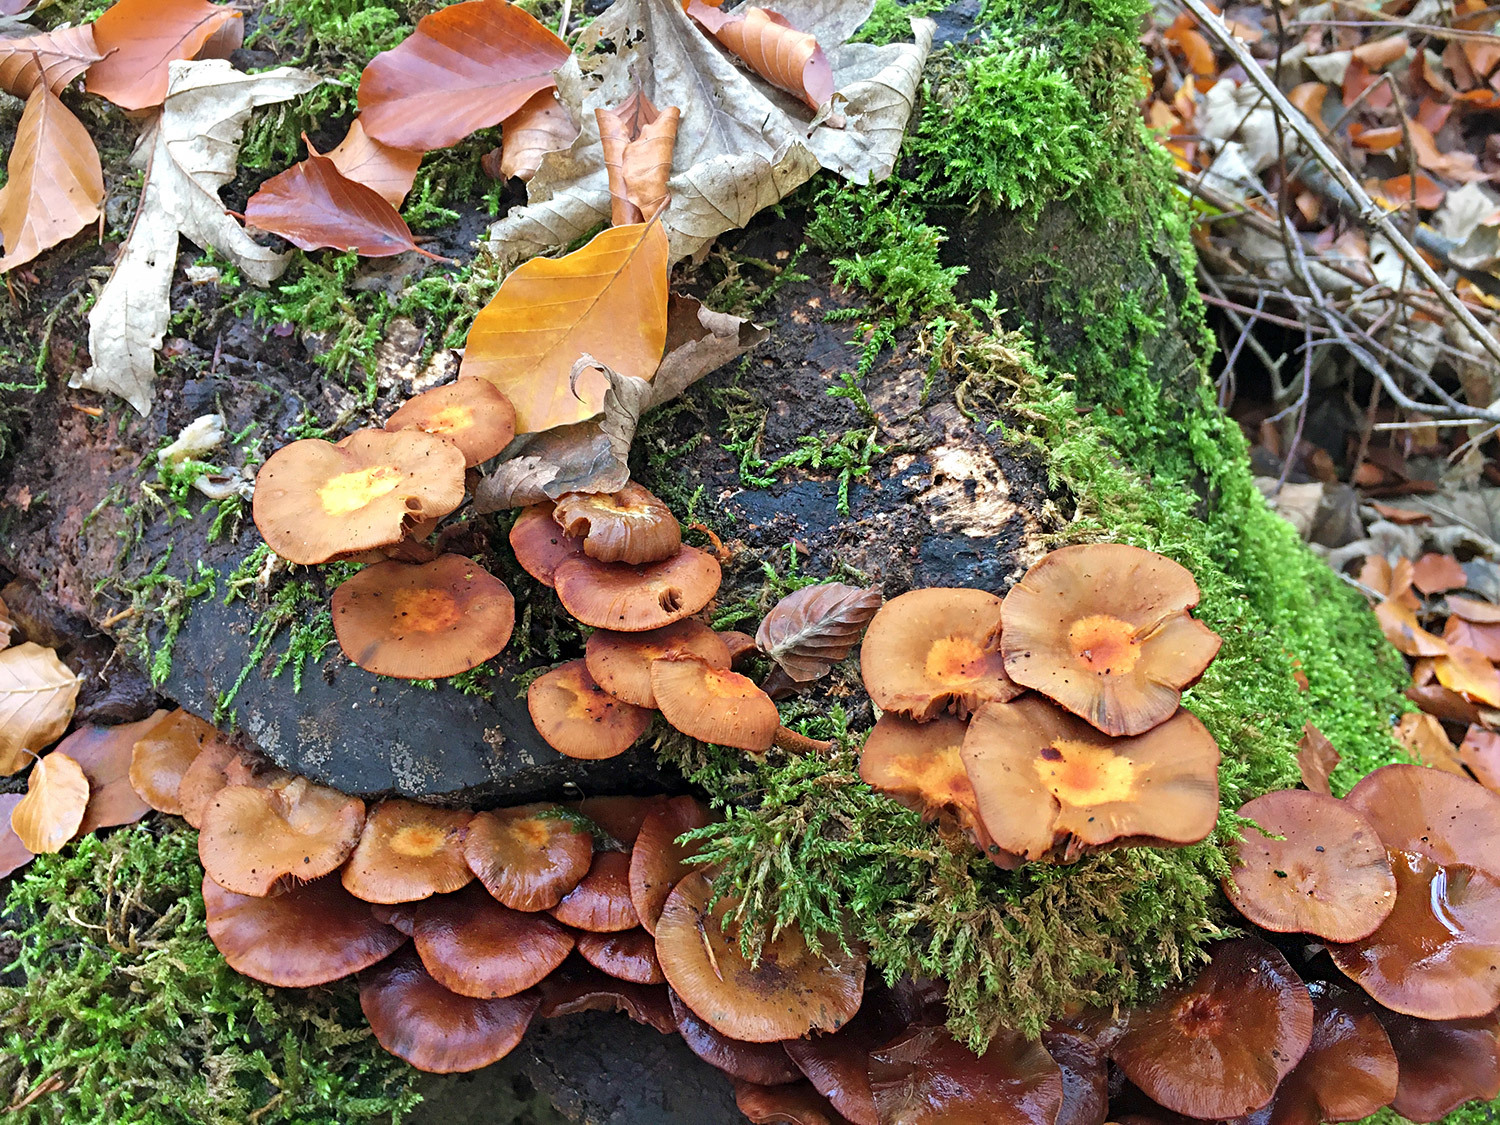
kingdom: Fungi
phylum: Basidiomycota
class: Agaricomycetes
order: Agaricales
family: Strophariaceae
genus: Kuehneromyces
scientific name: Kuehneromyces mutabilis
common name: Sheathed woodtuft
